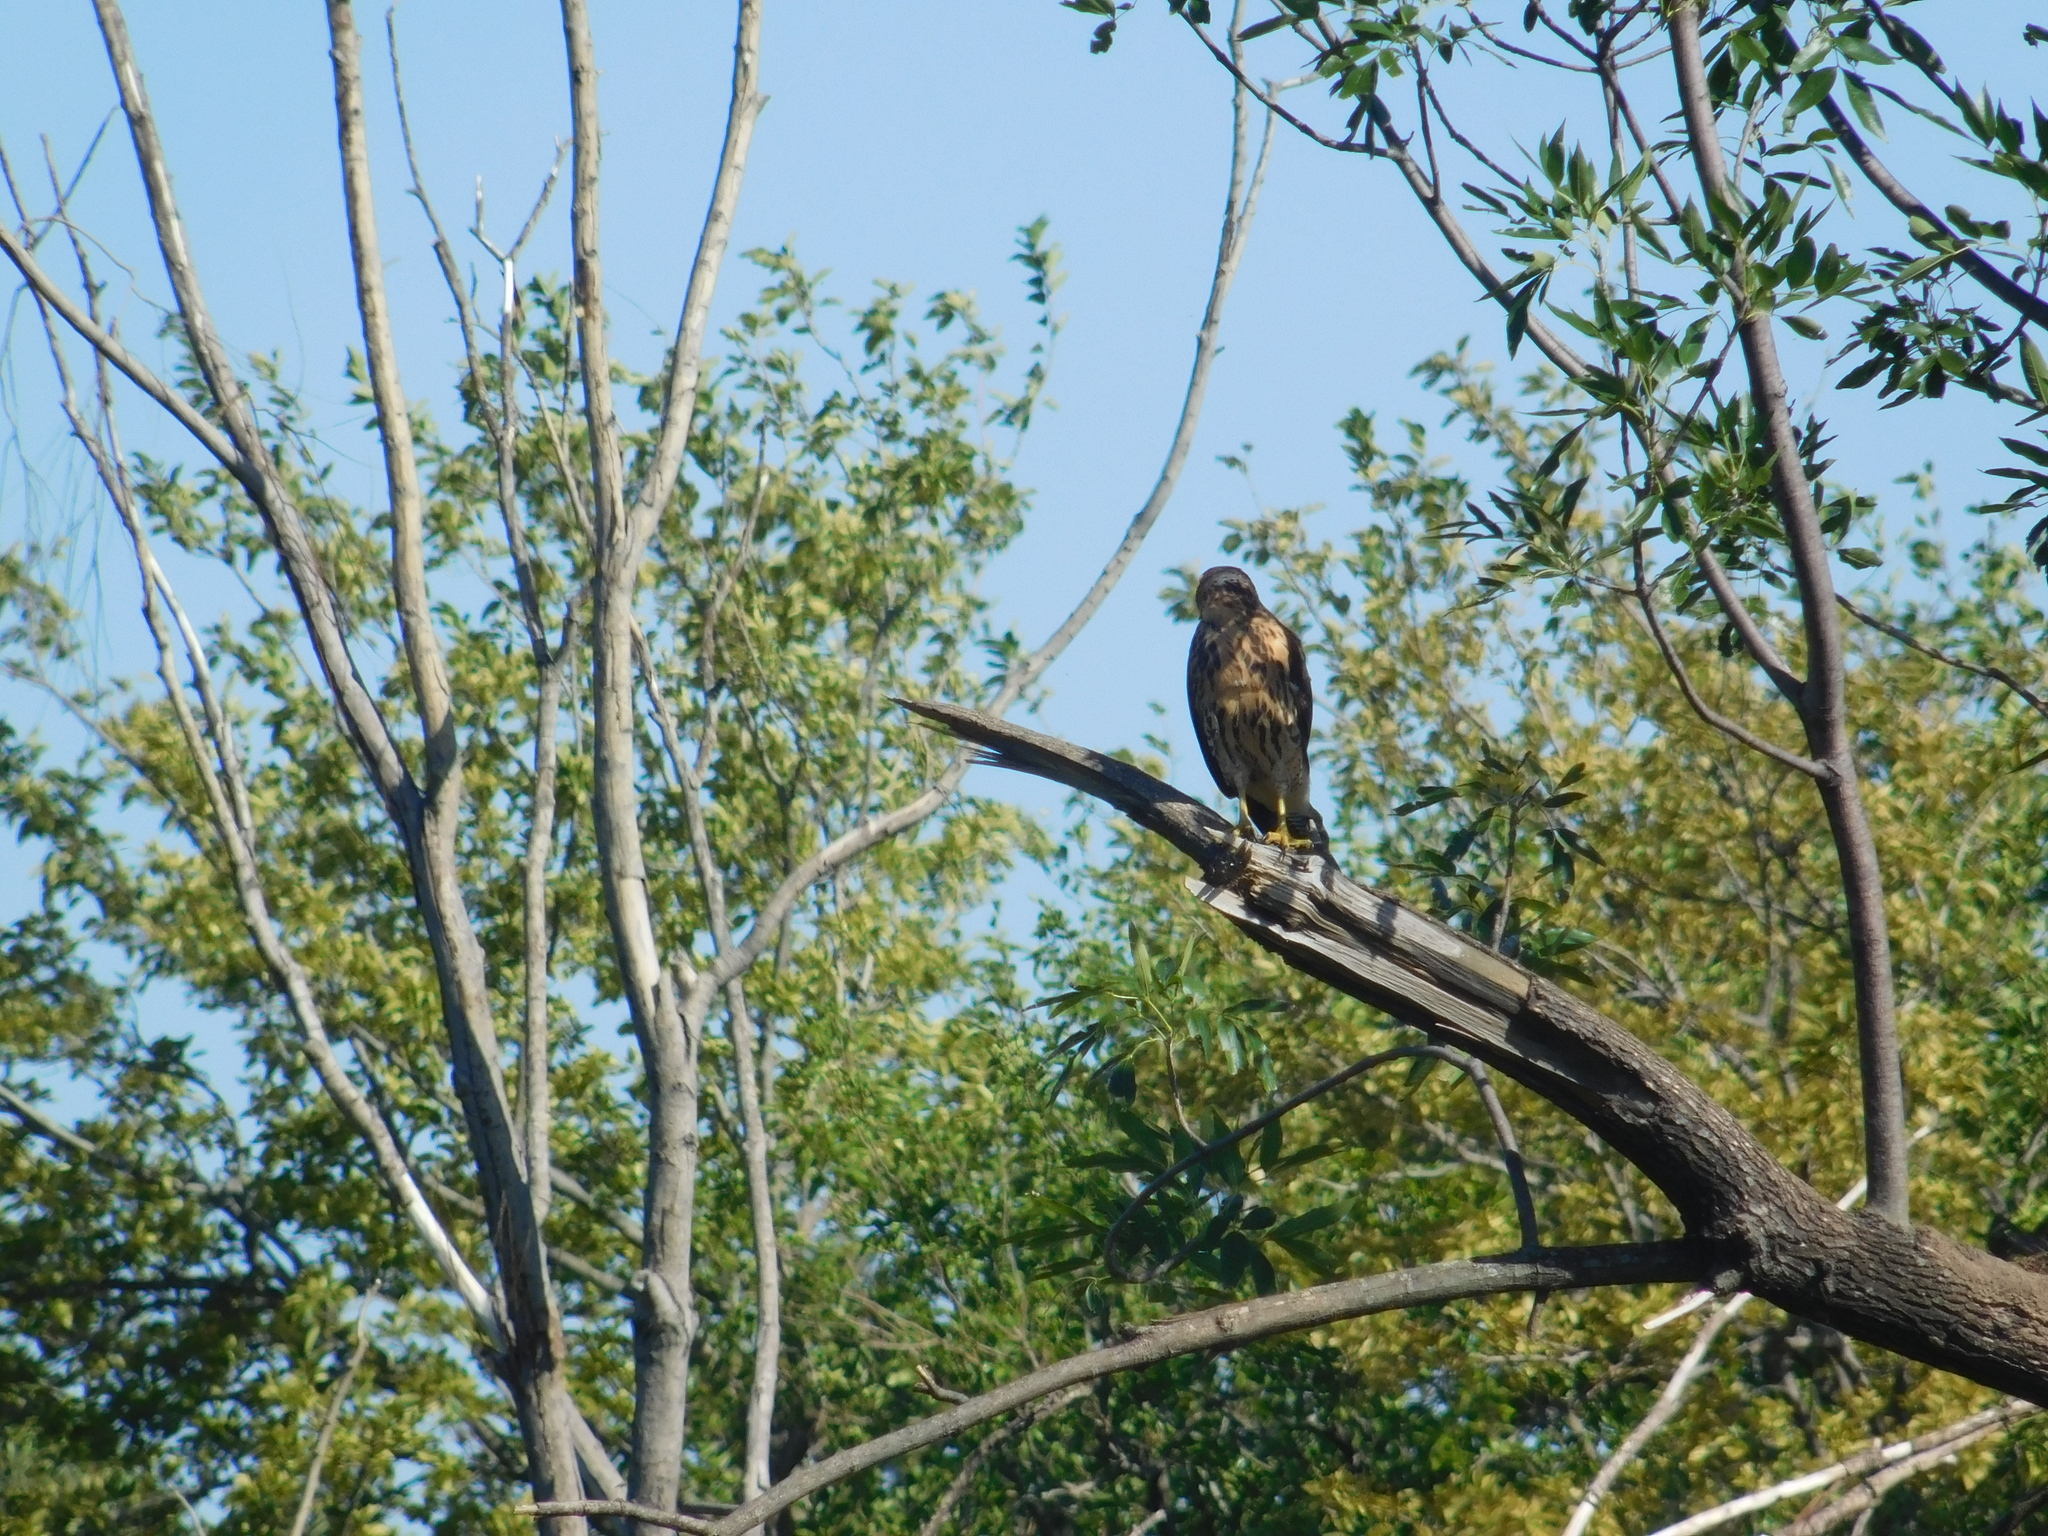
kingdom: Animalia
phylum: Chordata
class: Aves
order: Accipitriformes
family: Accipitridae
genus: Parabuteo
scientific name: Parabuteo unicinctus
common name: Harris's hawk
